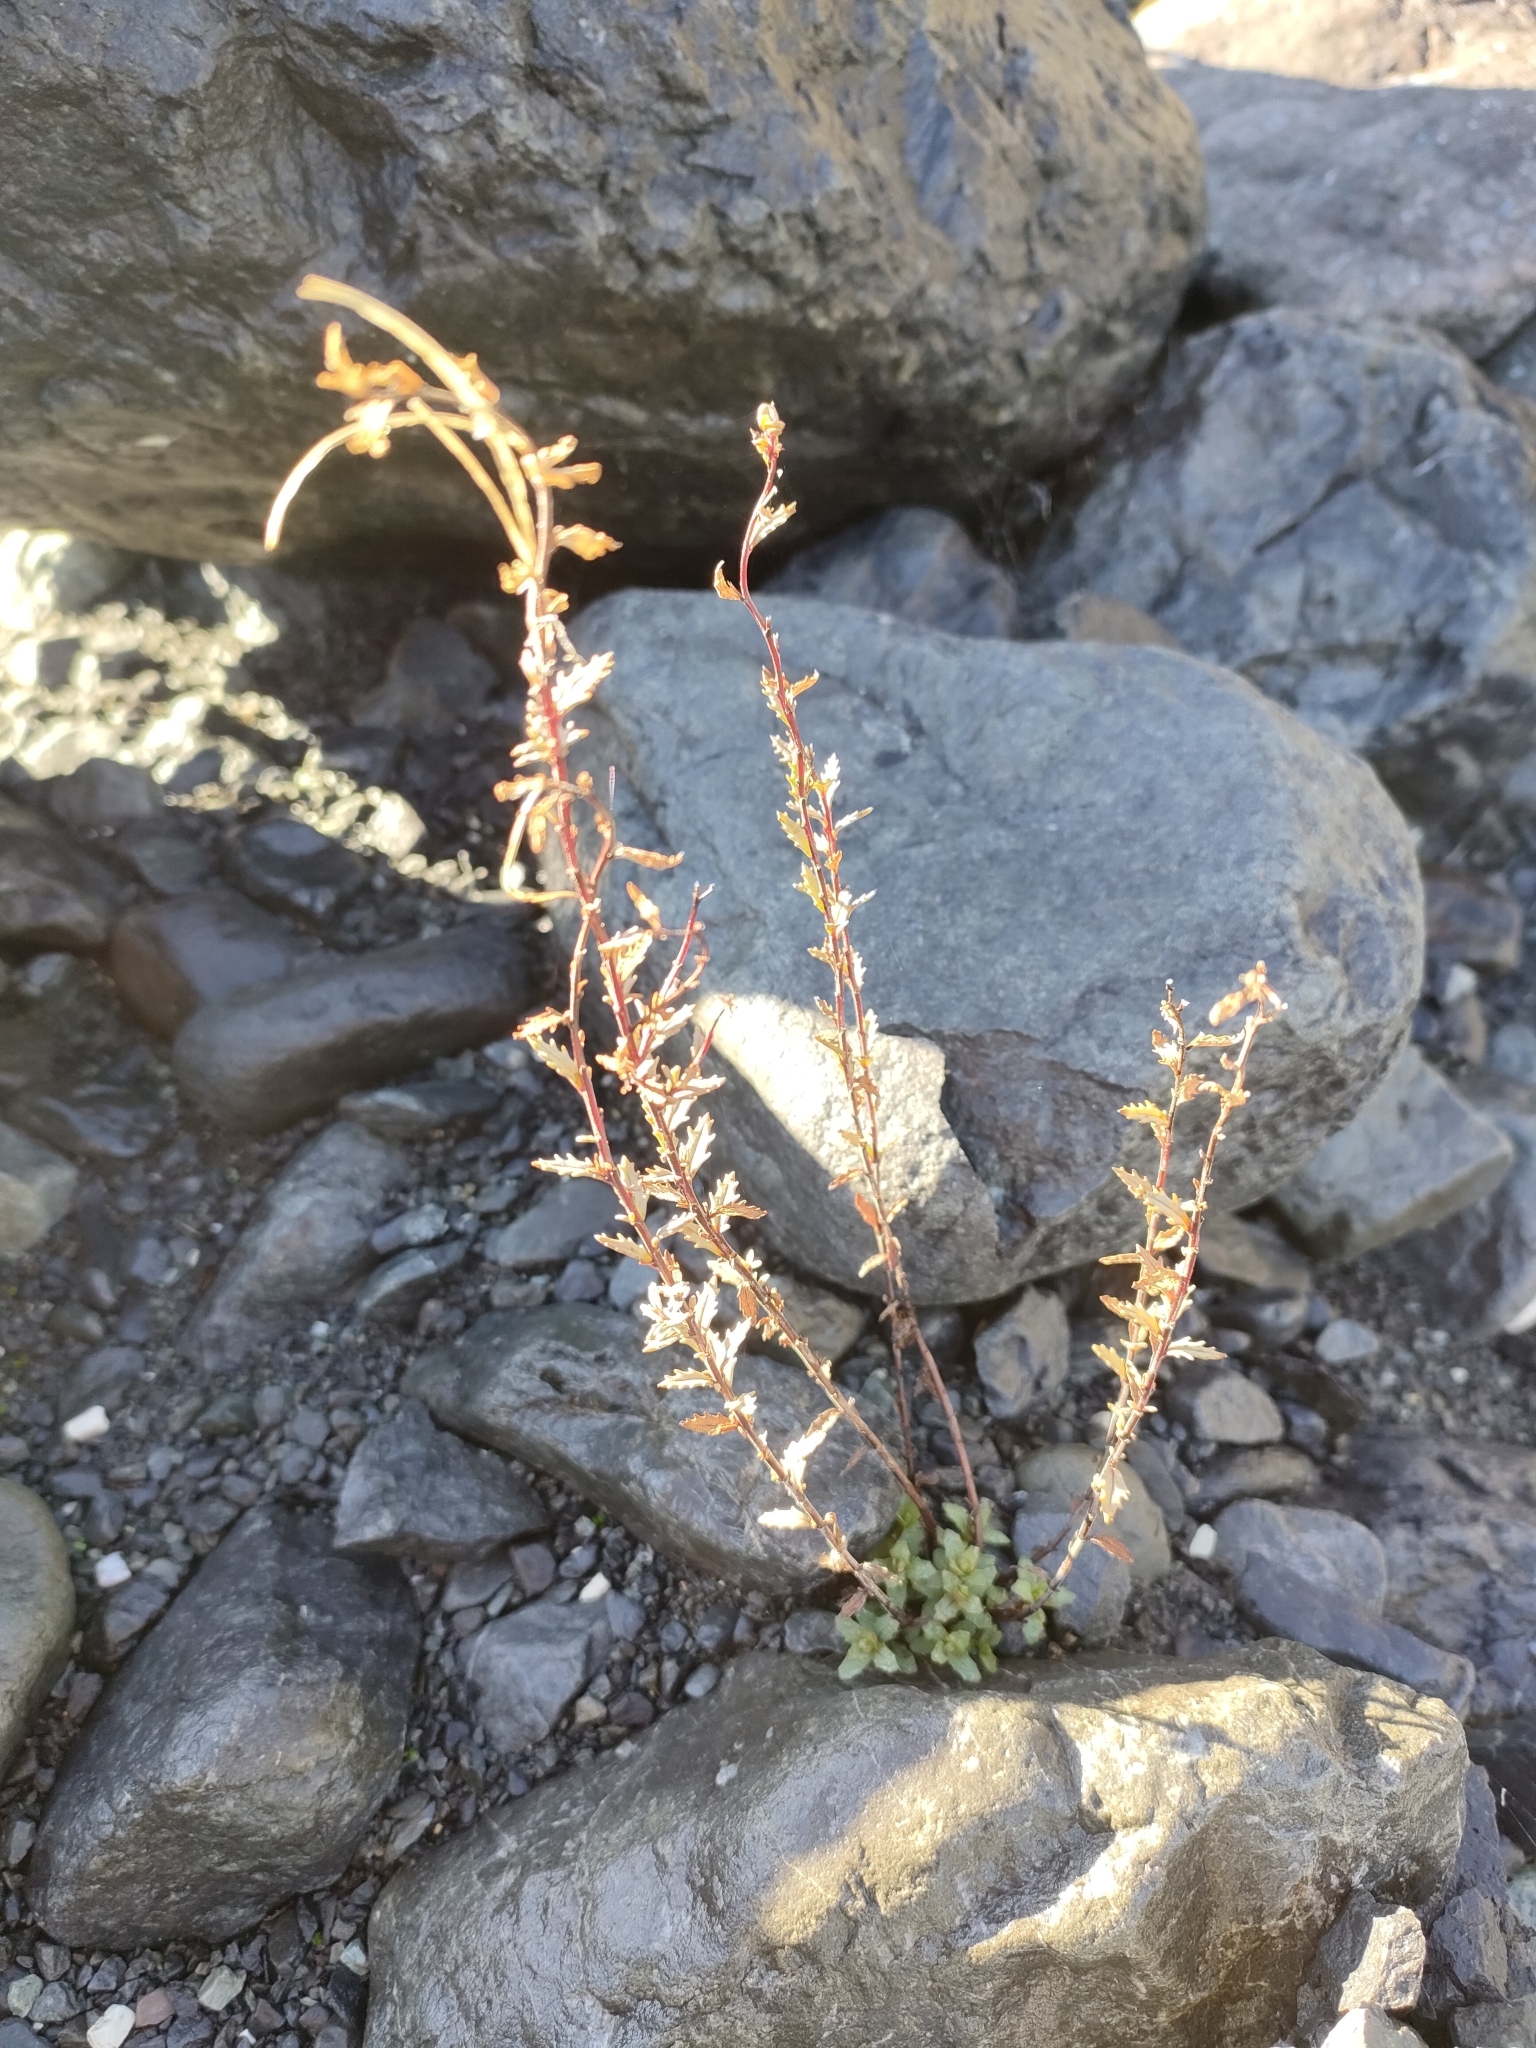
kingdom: Plantae
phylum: Tracheophyta
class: Magnoliopsida
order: Myrtales
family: Onagraceae
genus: Epilobium
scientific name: Epilobium melanocaulon
